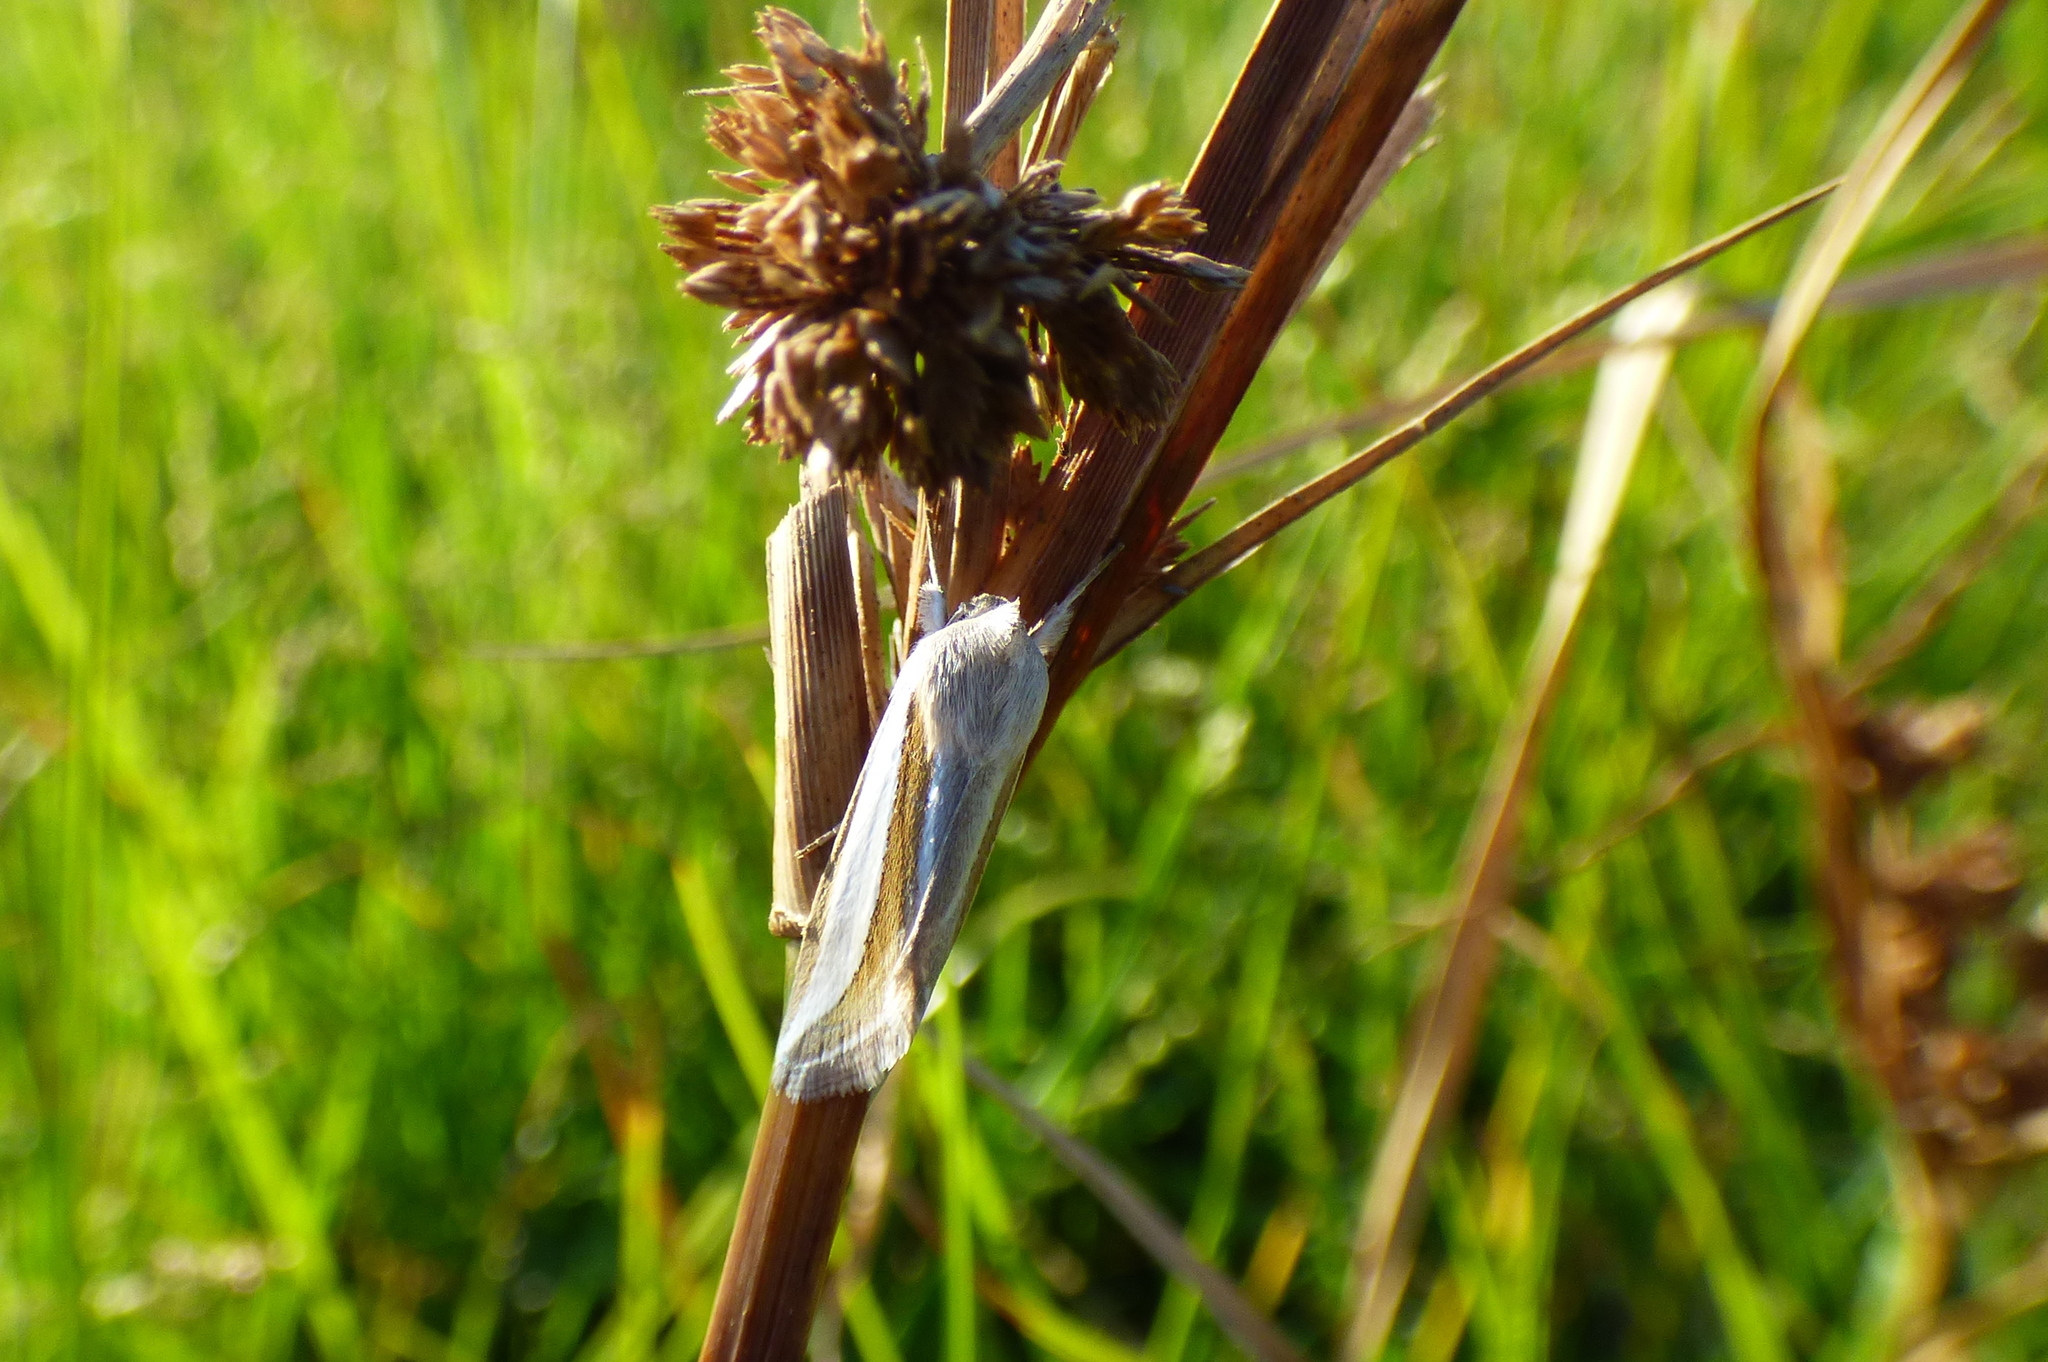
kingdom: Animalia
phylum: Arthropoda
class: Insecta
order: Lepidoptera
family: Noctuidae
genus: Cucullia
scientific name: Cucullia argyrina
